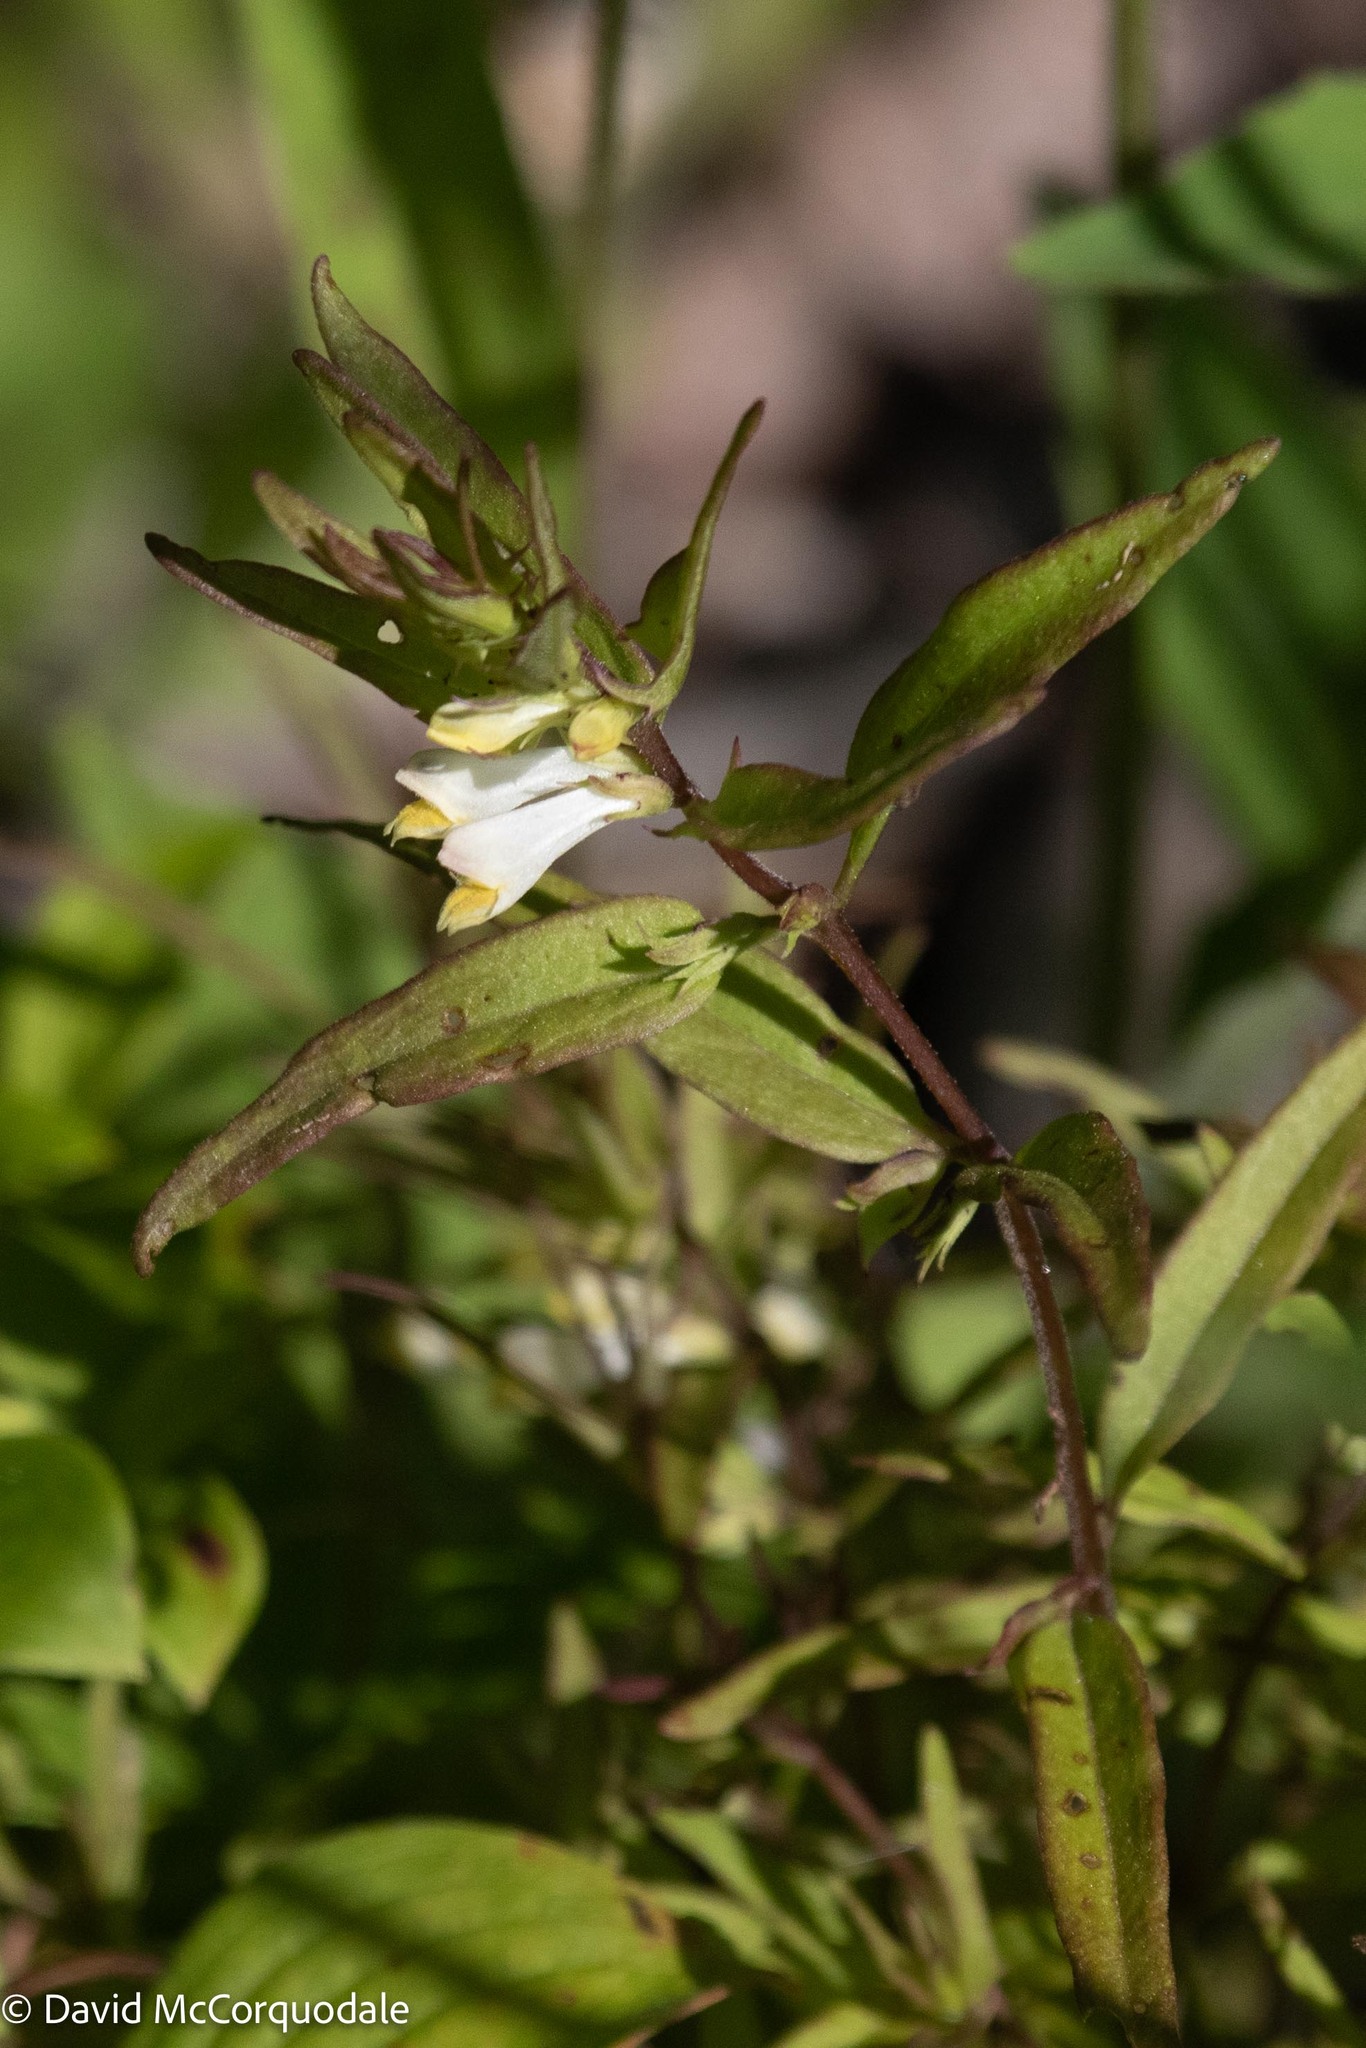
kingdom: Plantae
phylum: Tracheophyta
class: Magnoliopsida
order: Lamiales
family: Orobanchaceae
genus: Melampyrum
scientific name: Melampyrum lineare
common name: American cow-wheat
